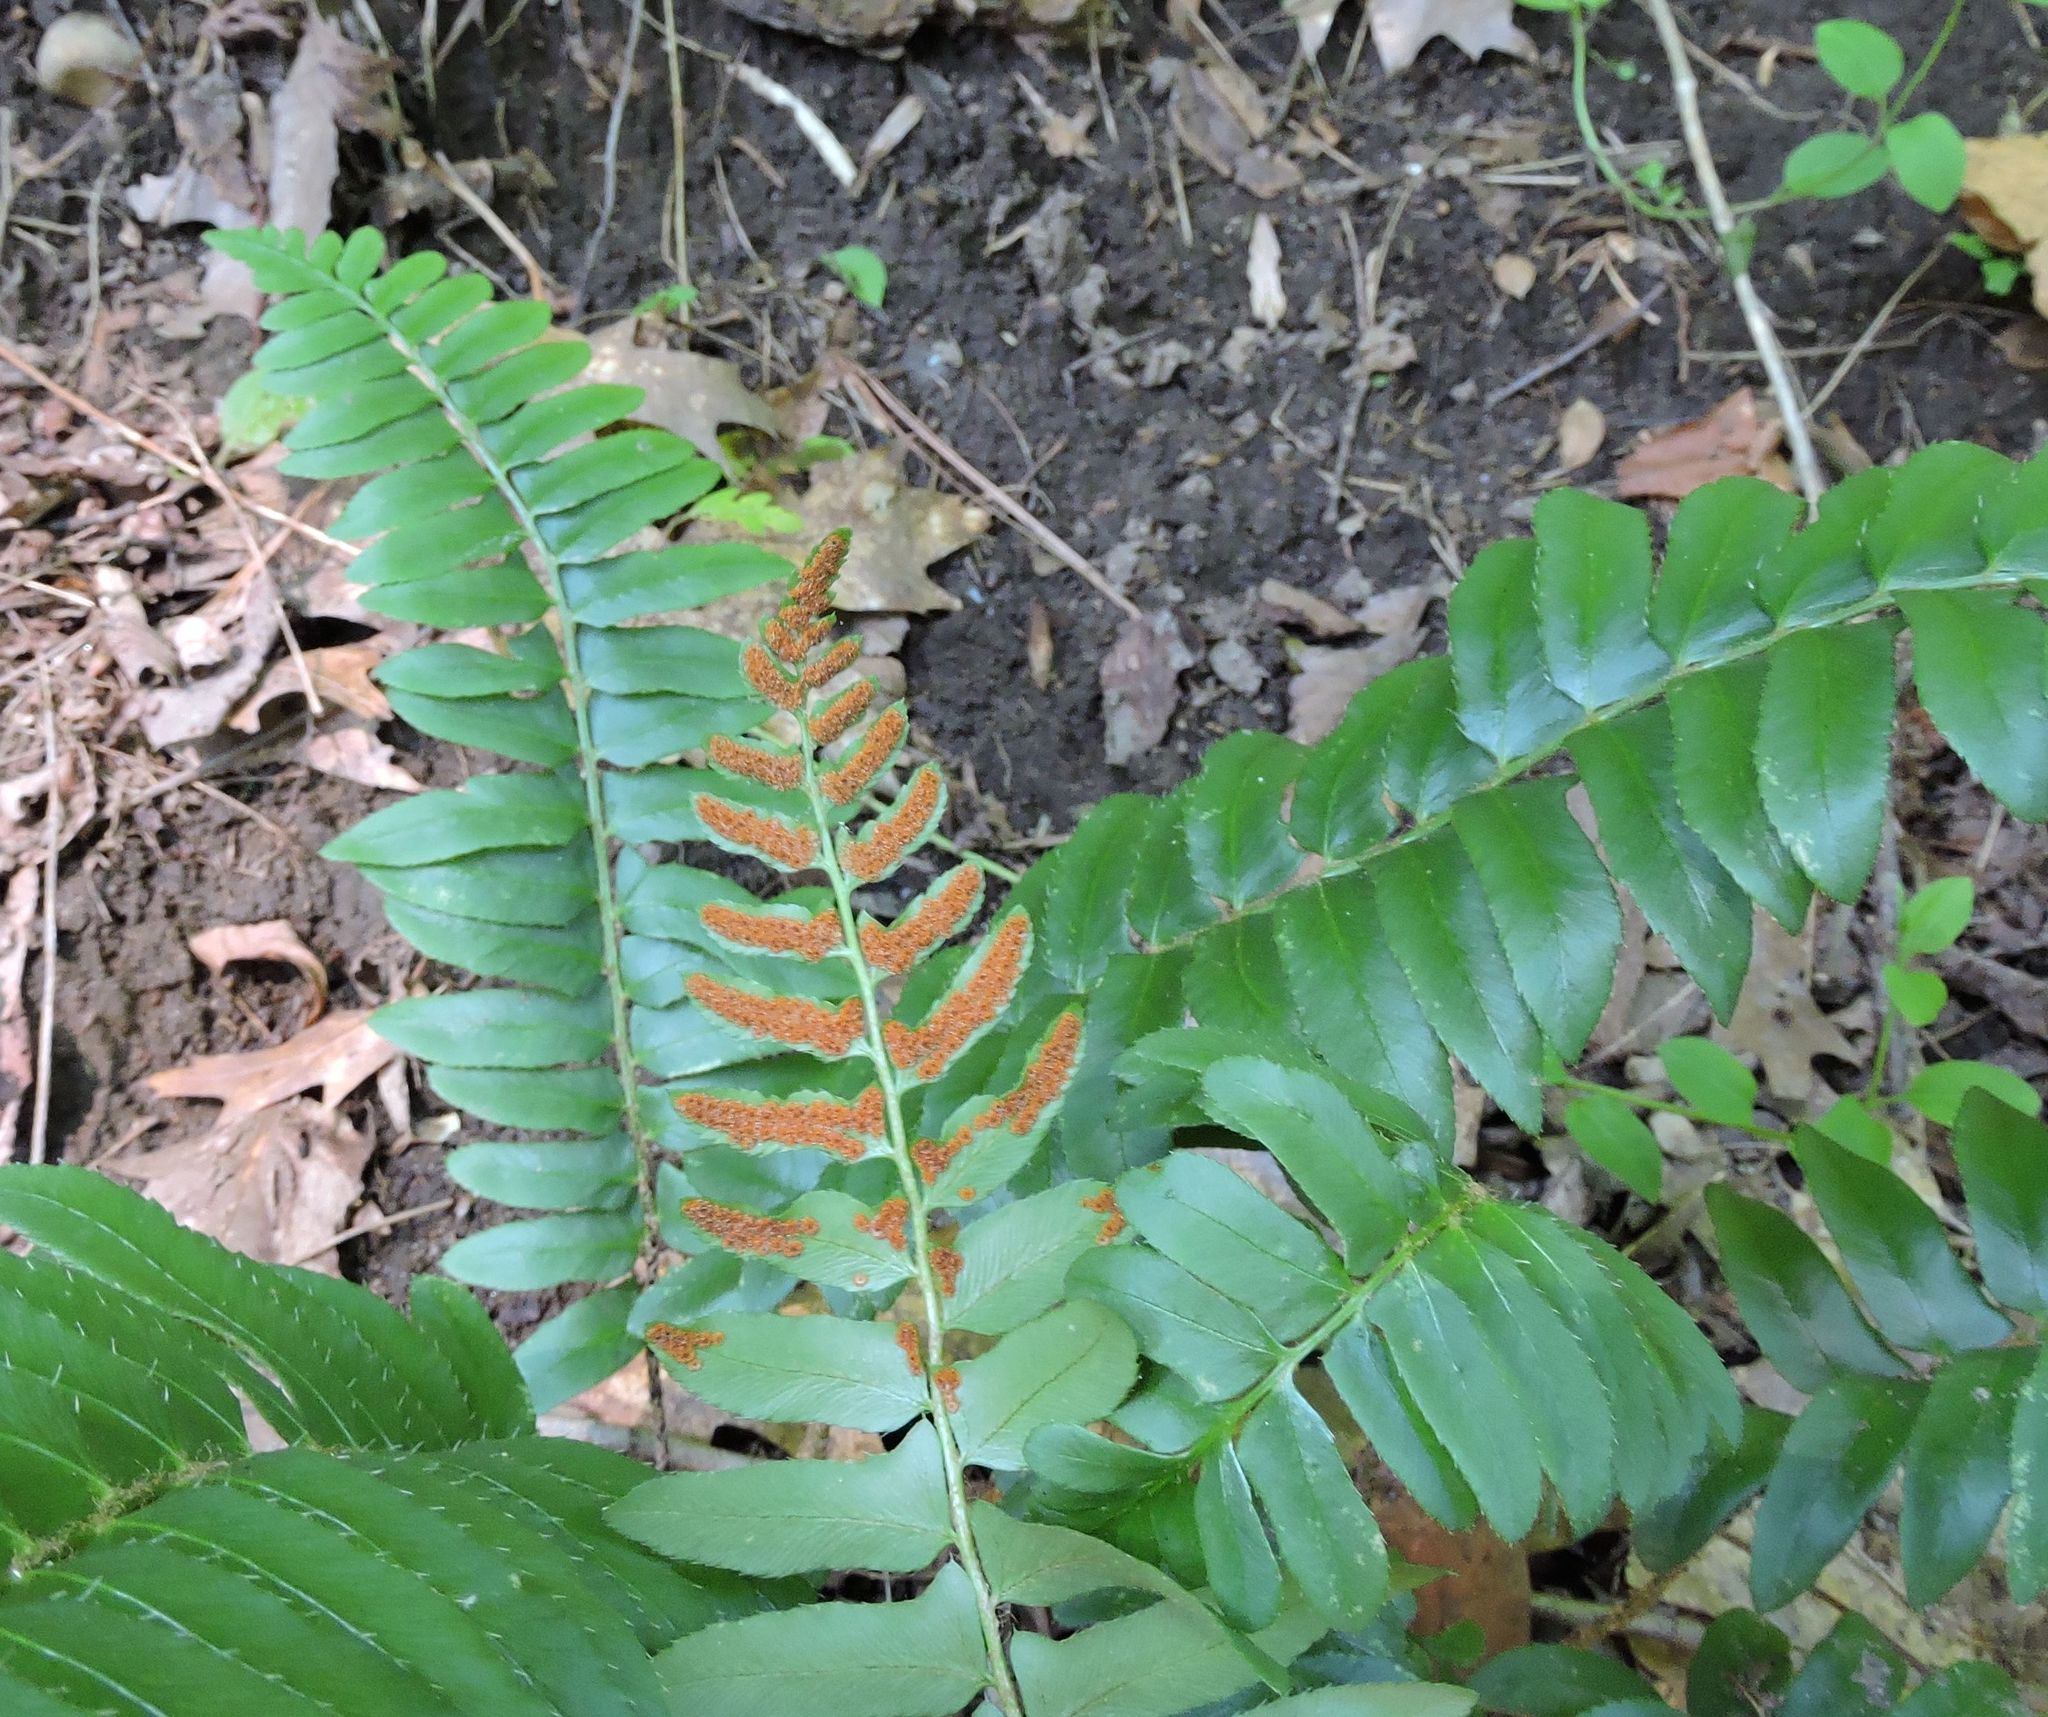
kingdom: Plantae
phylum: Tracheophyta
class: Polypodiopsida
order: Polypodiales
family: Dryopteridaceae
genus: Polystichum
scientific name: Polystichum acrostichoides
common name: Christmas fern
